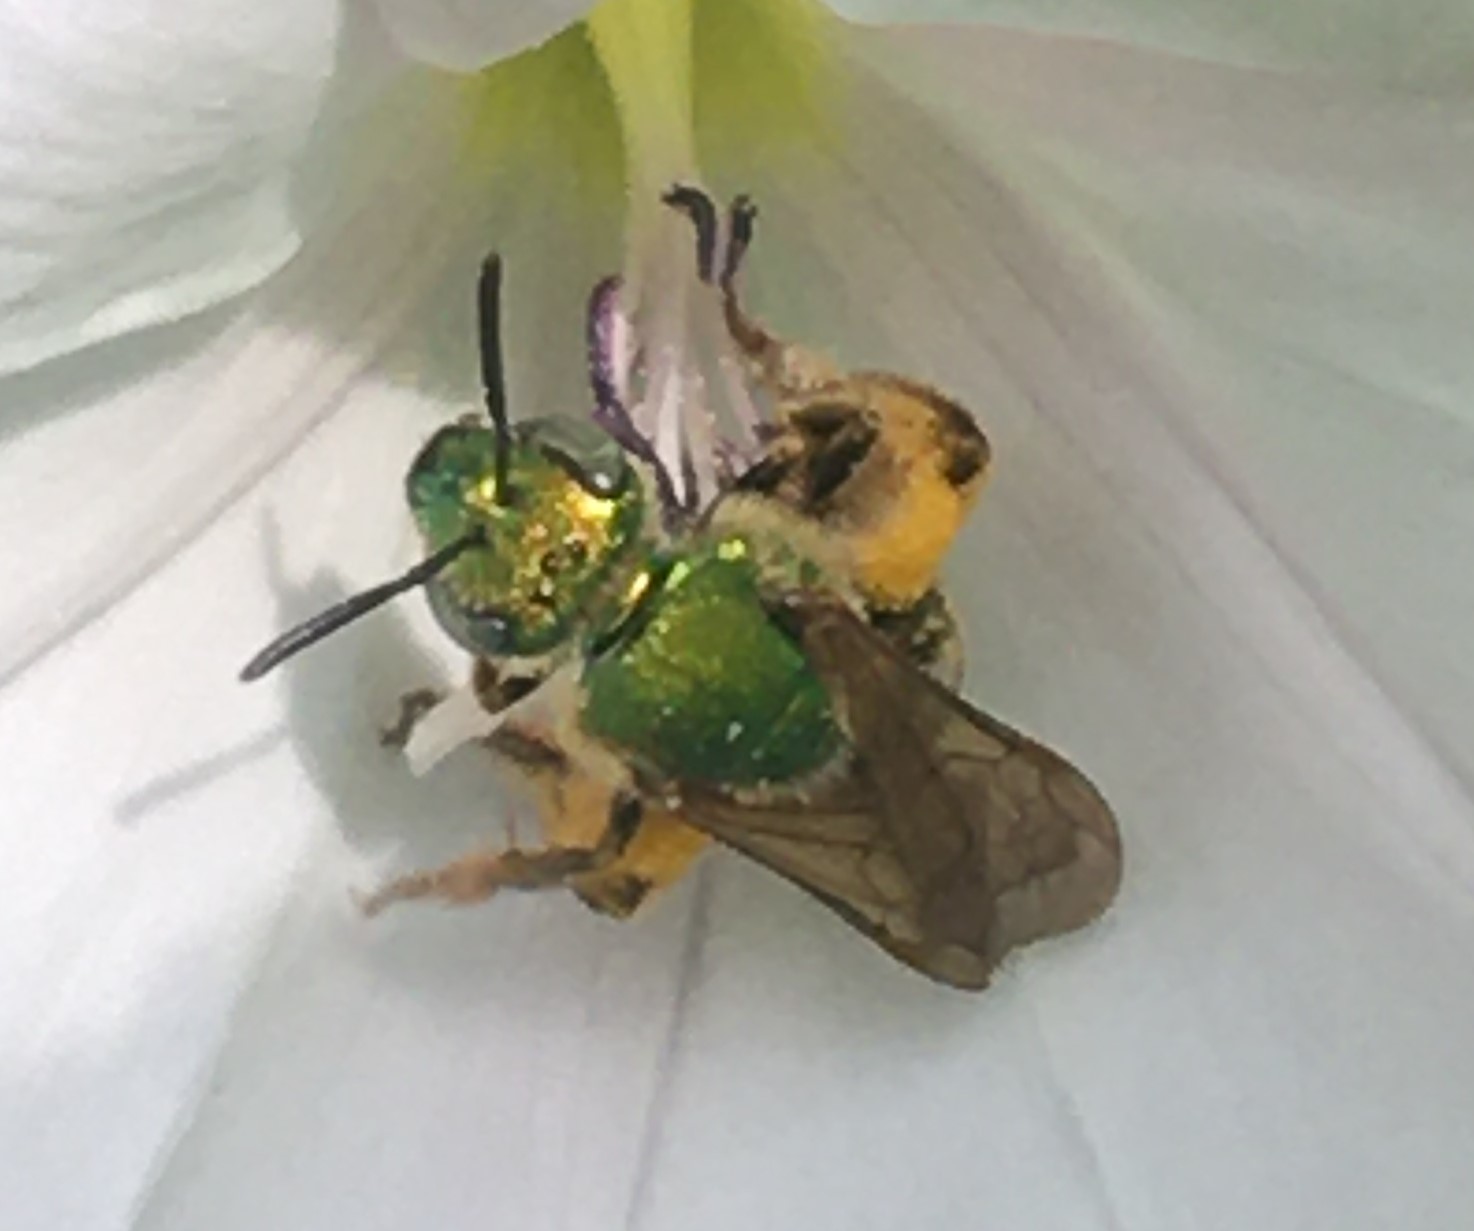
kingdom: Animalia
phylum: Arthropoda
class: Insecta
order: Hymenoptera
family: Halictidae
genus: Agapostemon
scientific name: Agapostemon virescens
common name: Bicolored striped sweat bee
